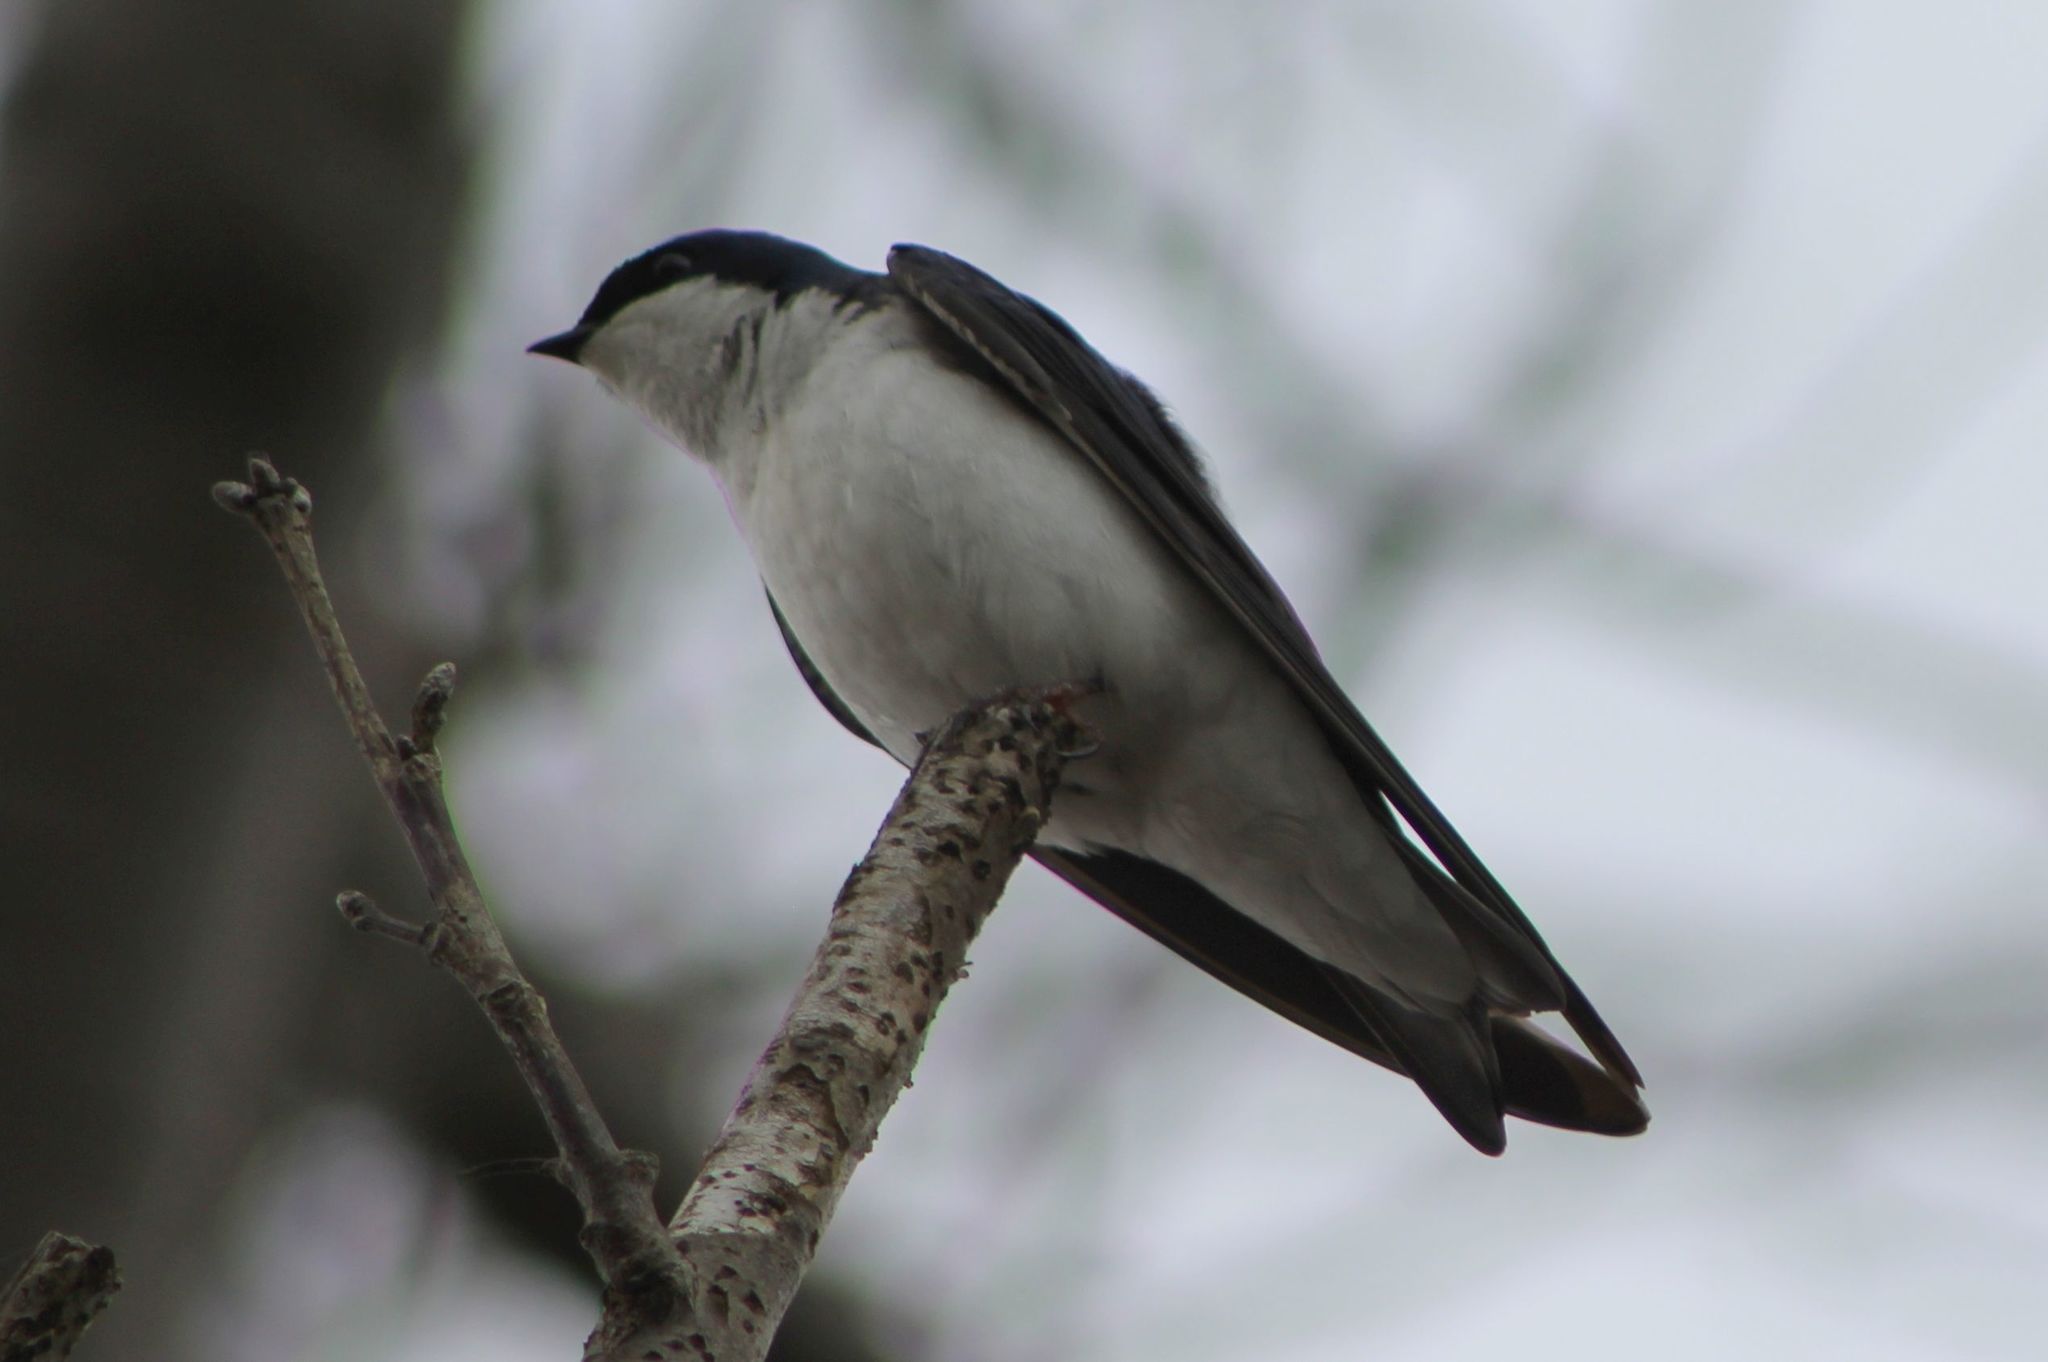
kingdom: Animalia
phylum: Chordata
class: Aves
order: Passeriformes
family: Hirundinidae
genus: Tachycineta
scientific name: Tachycineta bicolor
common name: Tree swallow
